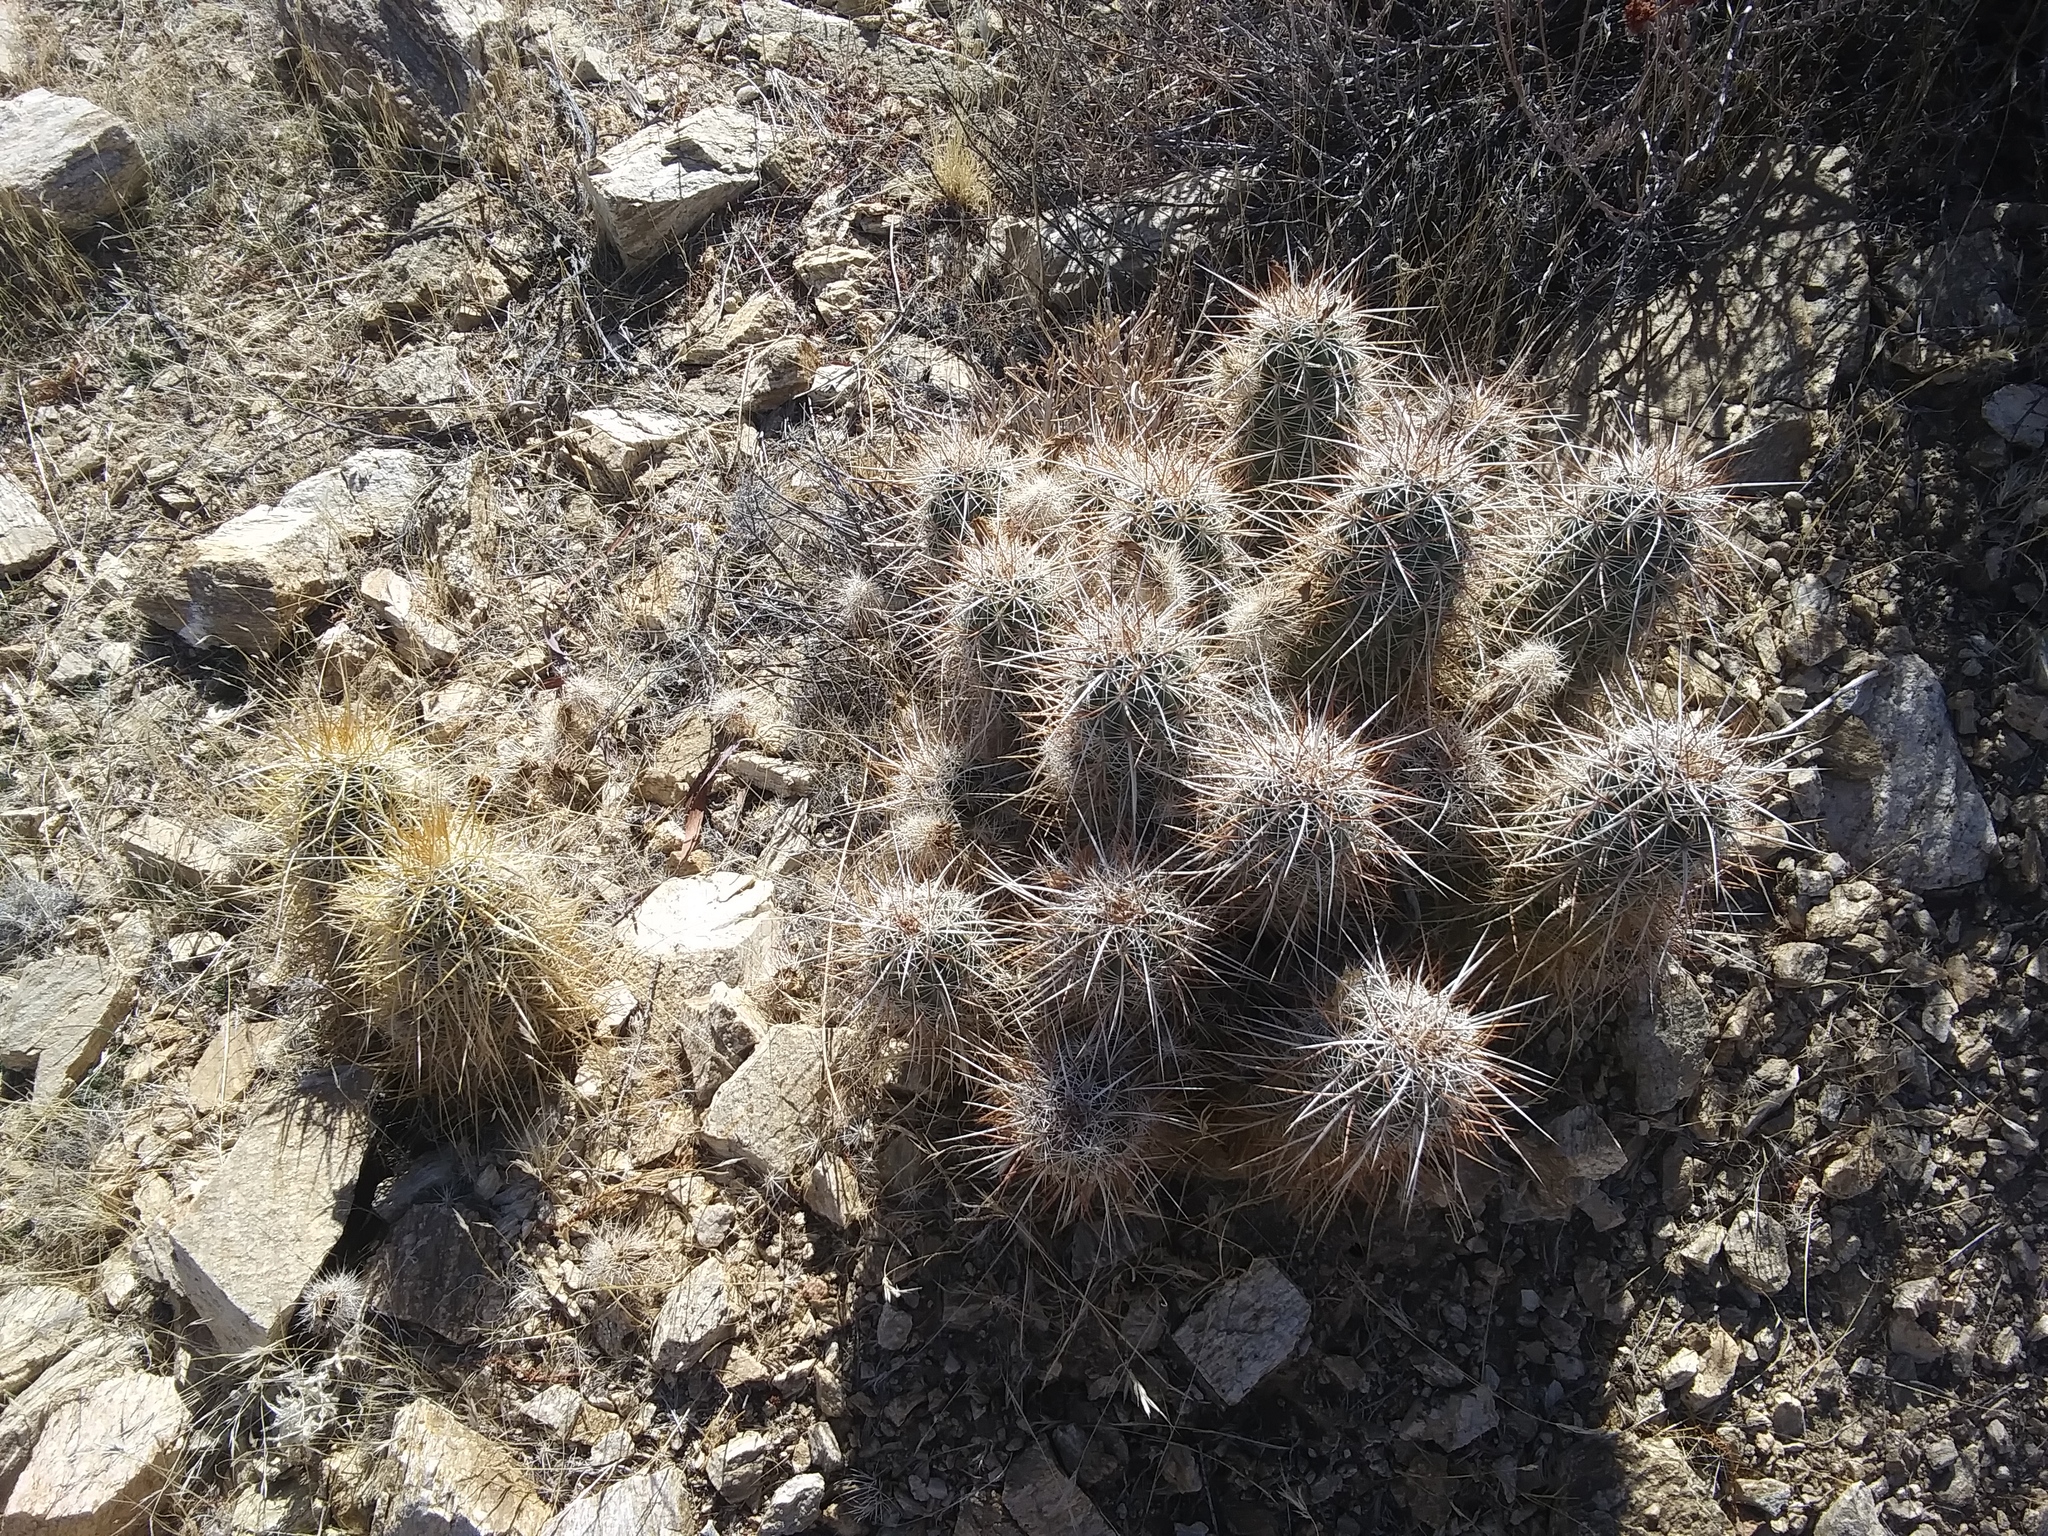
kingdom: Plantae
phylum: Tracheophyta
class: Magnoliopsida
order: Caryophyllales
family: Cactaceae
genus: Echinocereus
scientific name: Echinocereus engelmannii
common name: Engelmann's hedgehog cactus
